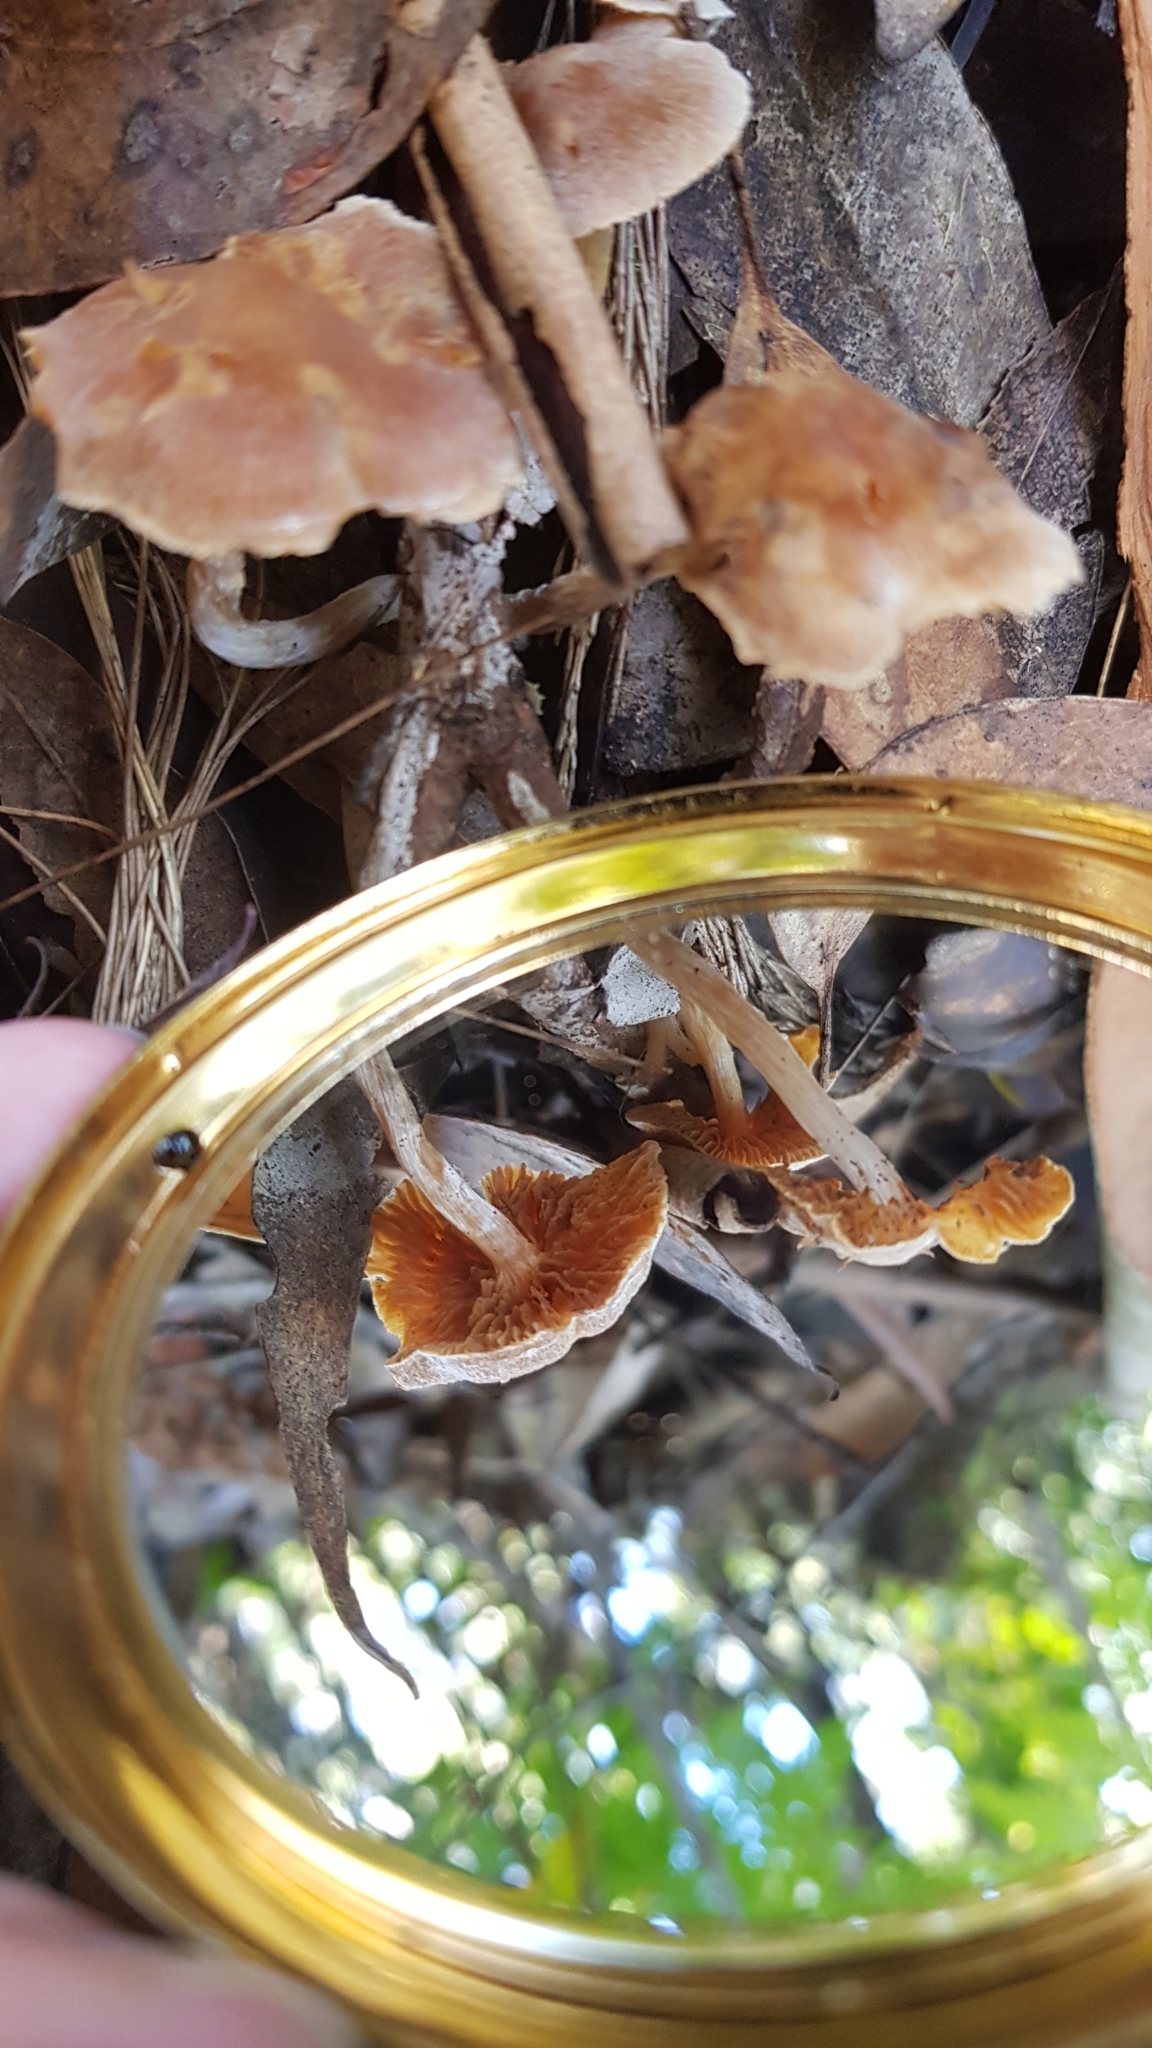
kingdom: Fungi
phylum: Basidiomycota
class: Agaricomycetes
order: Agaricales
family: Inocybaceae
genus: Inocybe
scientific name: Inocybe austrofibrillosa
